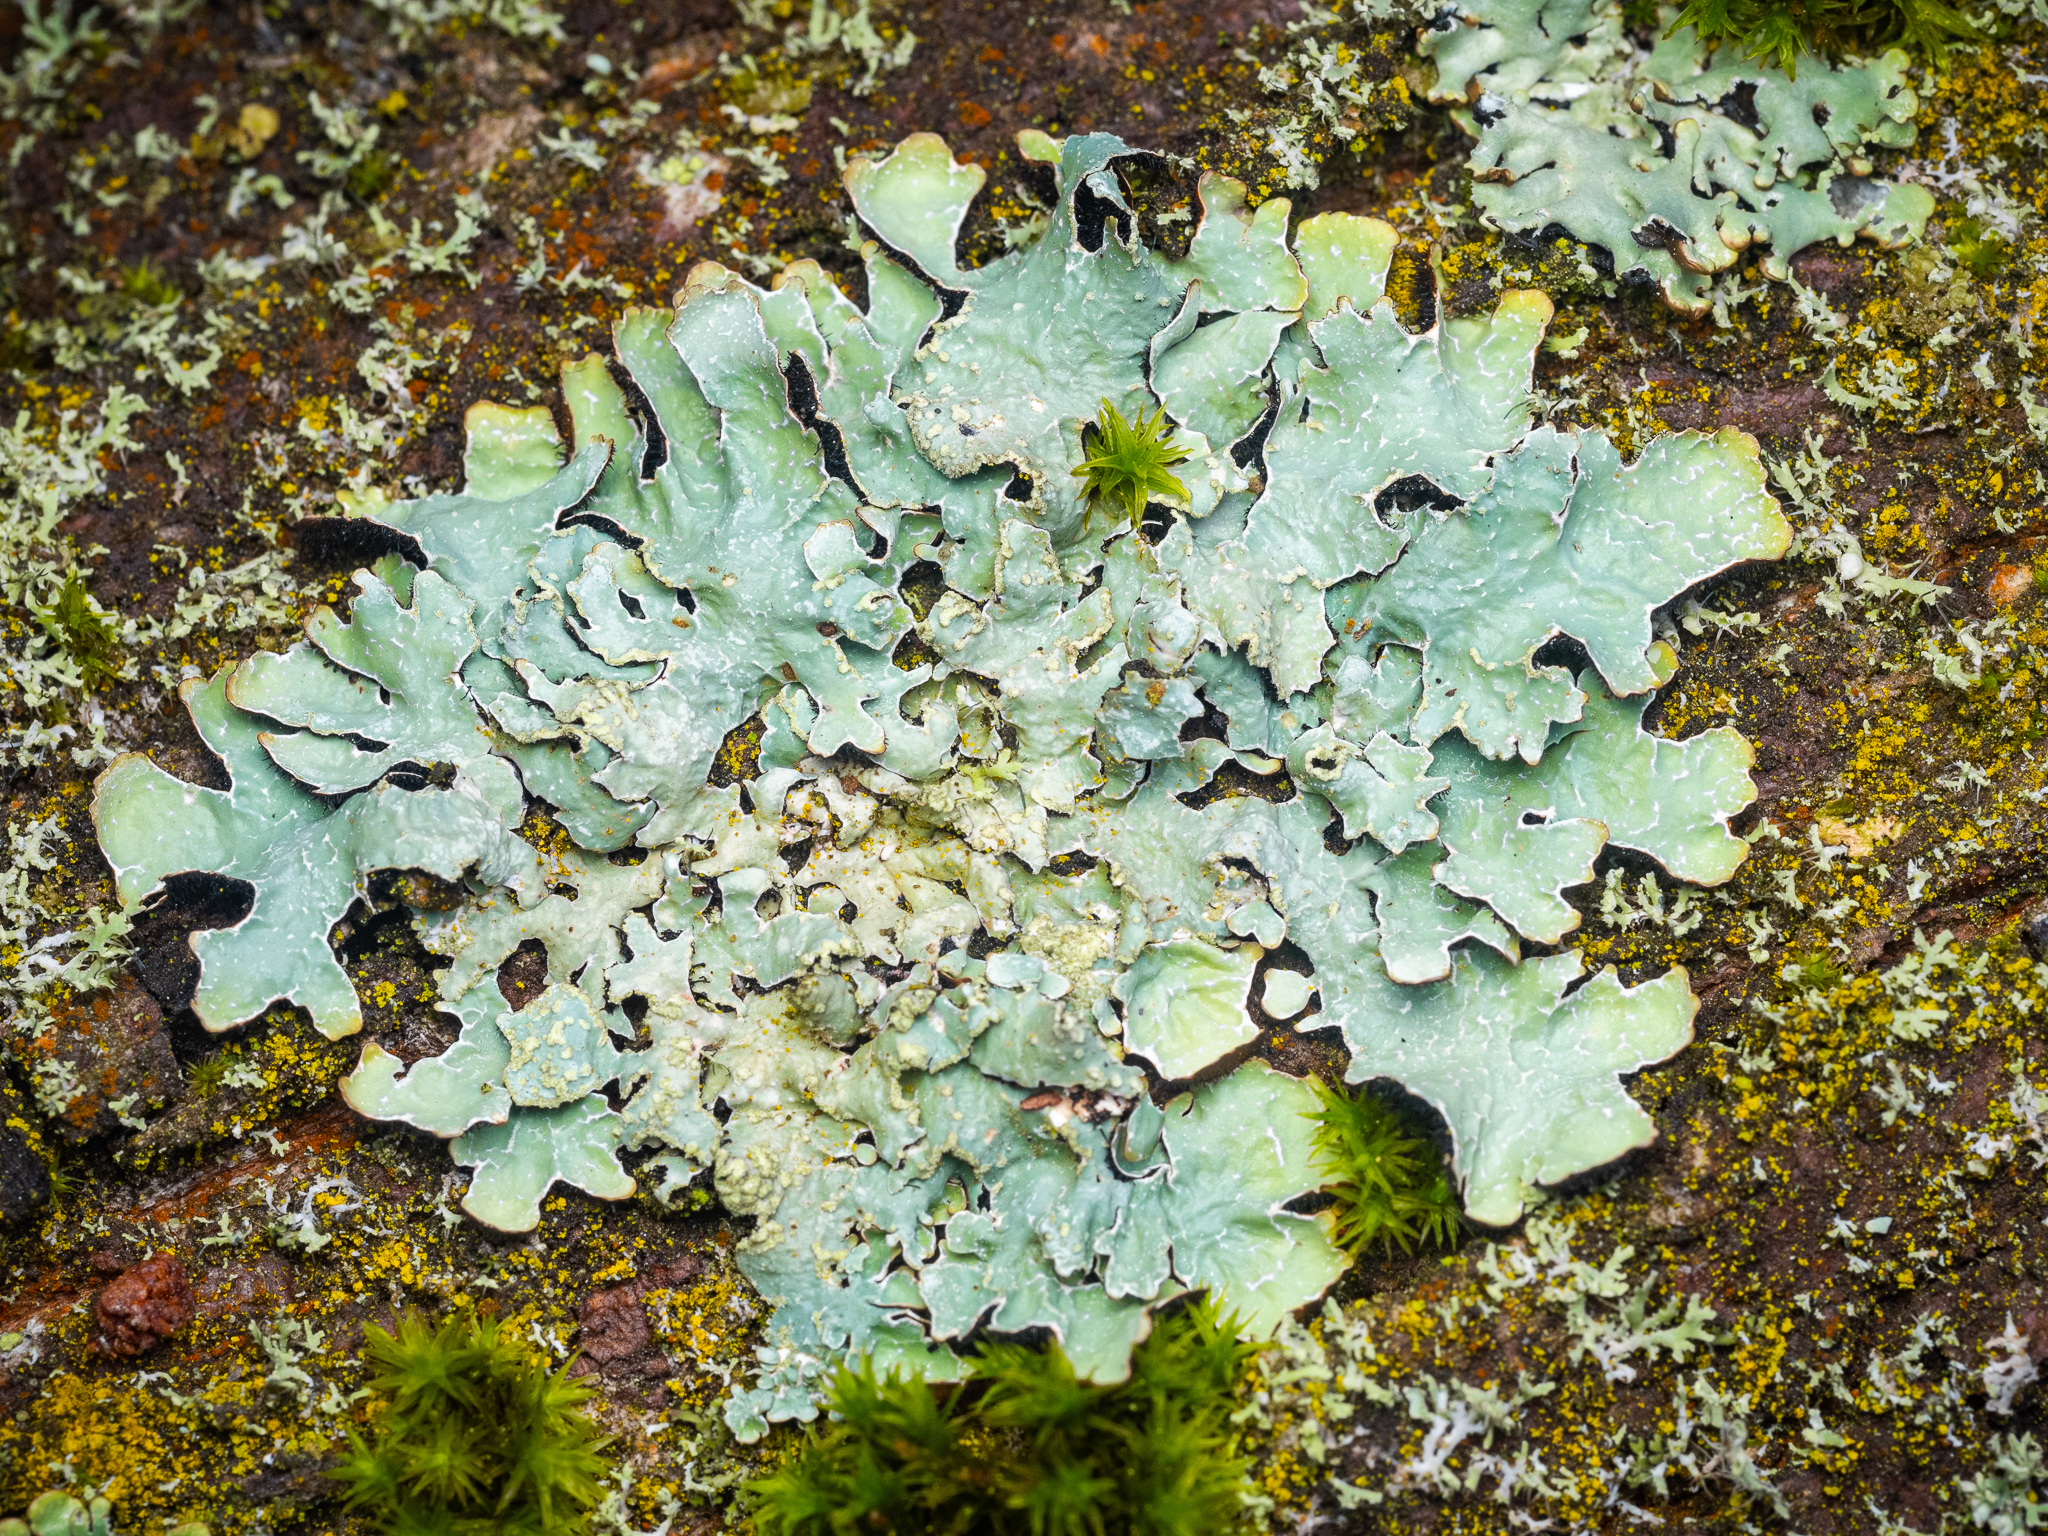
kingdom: Fungi
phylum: Ascomycota
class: Lecanoromycetes
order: Lecanorales
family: Parmeliaceae
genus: Parmelia
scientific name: Parmelia sulcata
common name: Netted shield lichen
